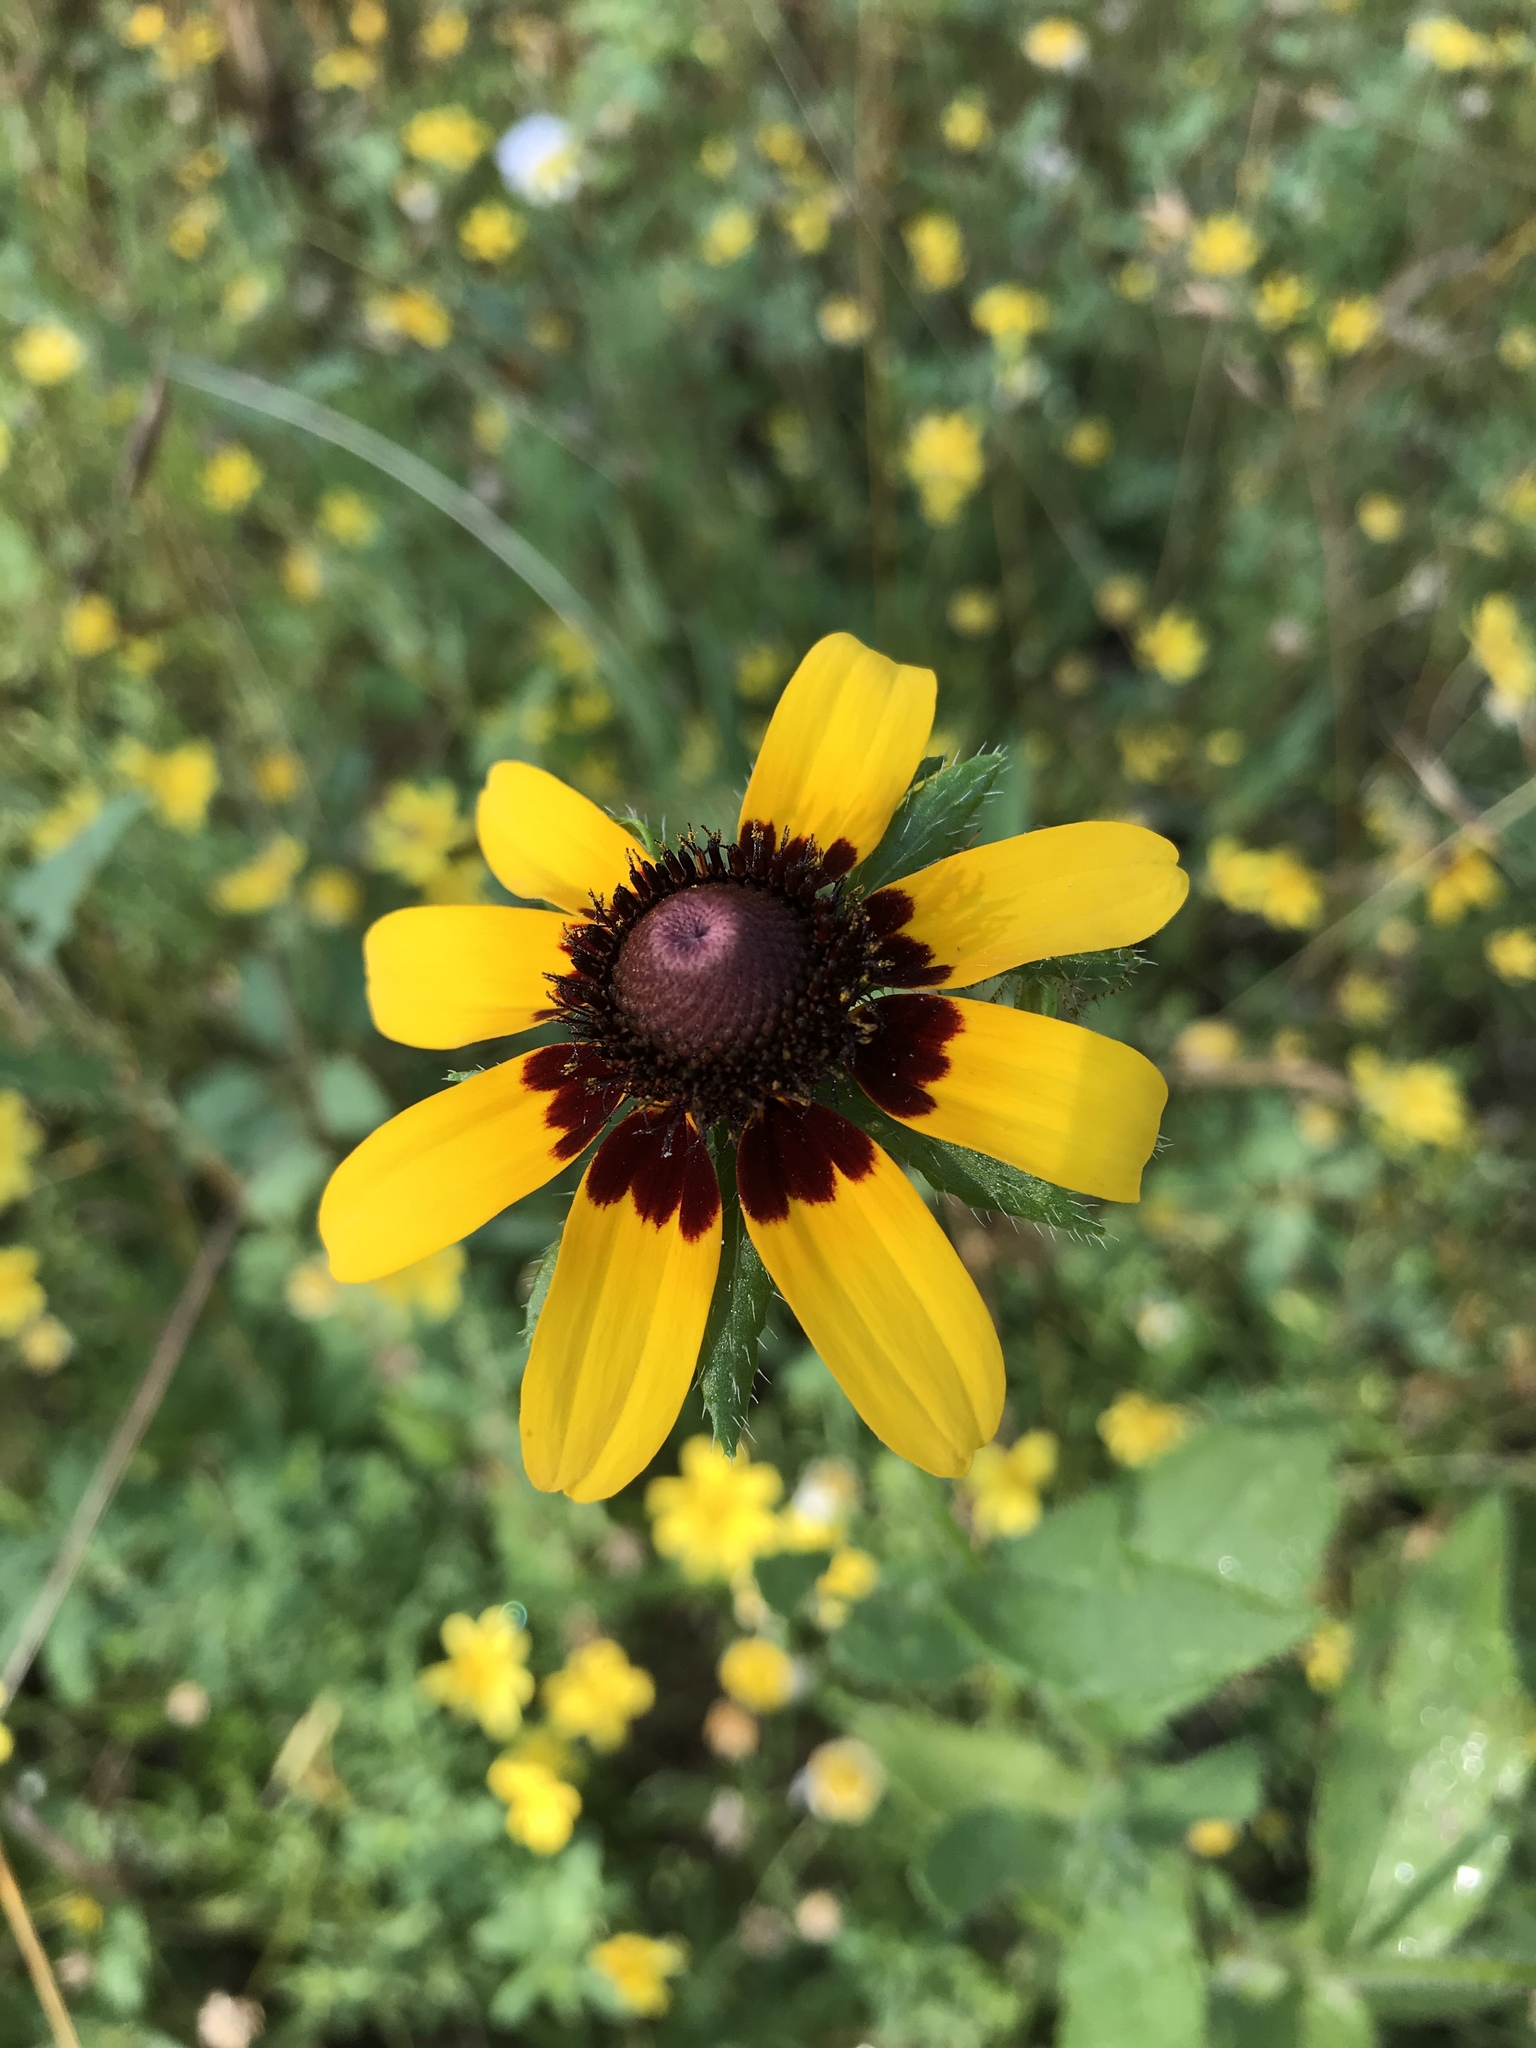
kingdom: Plantae
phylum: Tracheophyta
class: Magnoliopsida
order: Asterales
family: Asteraceae
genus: Rudbeckia
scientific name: Rudbeckia hirta
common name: Black-eyed-susan
